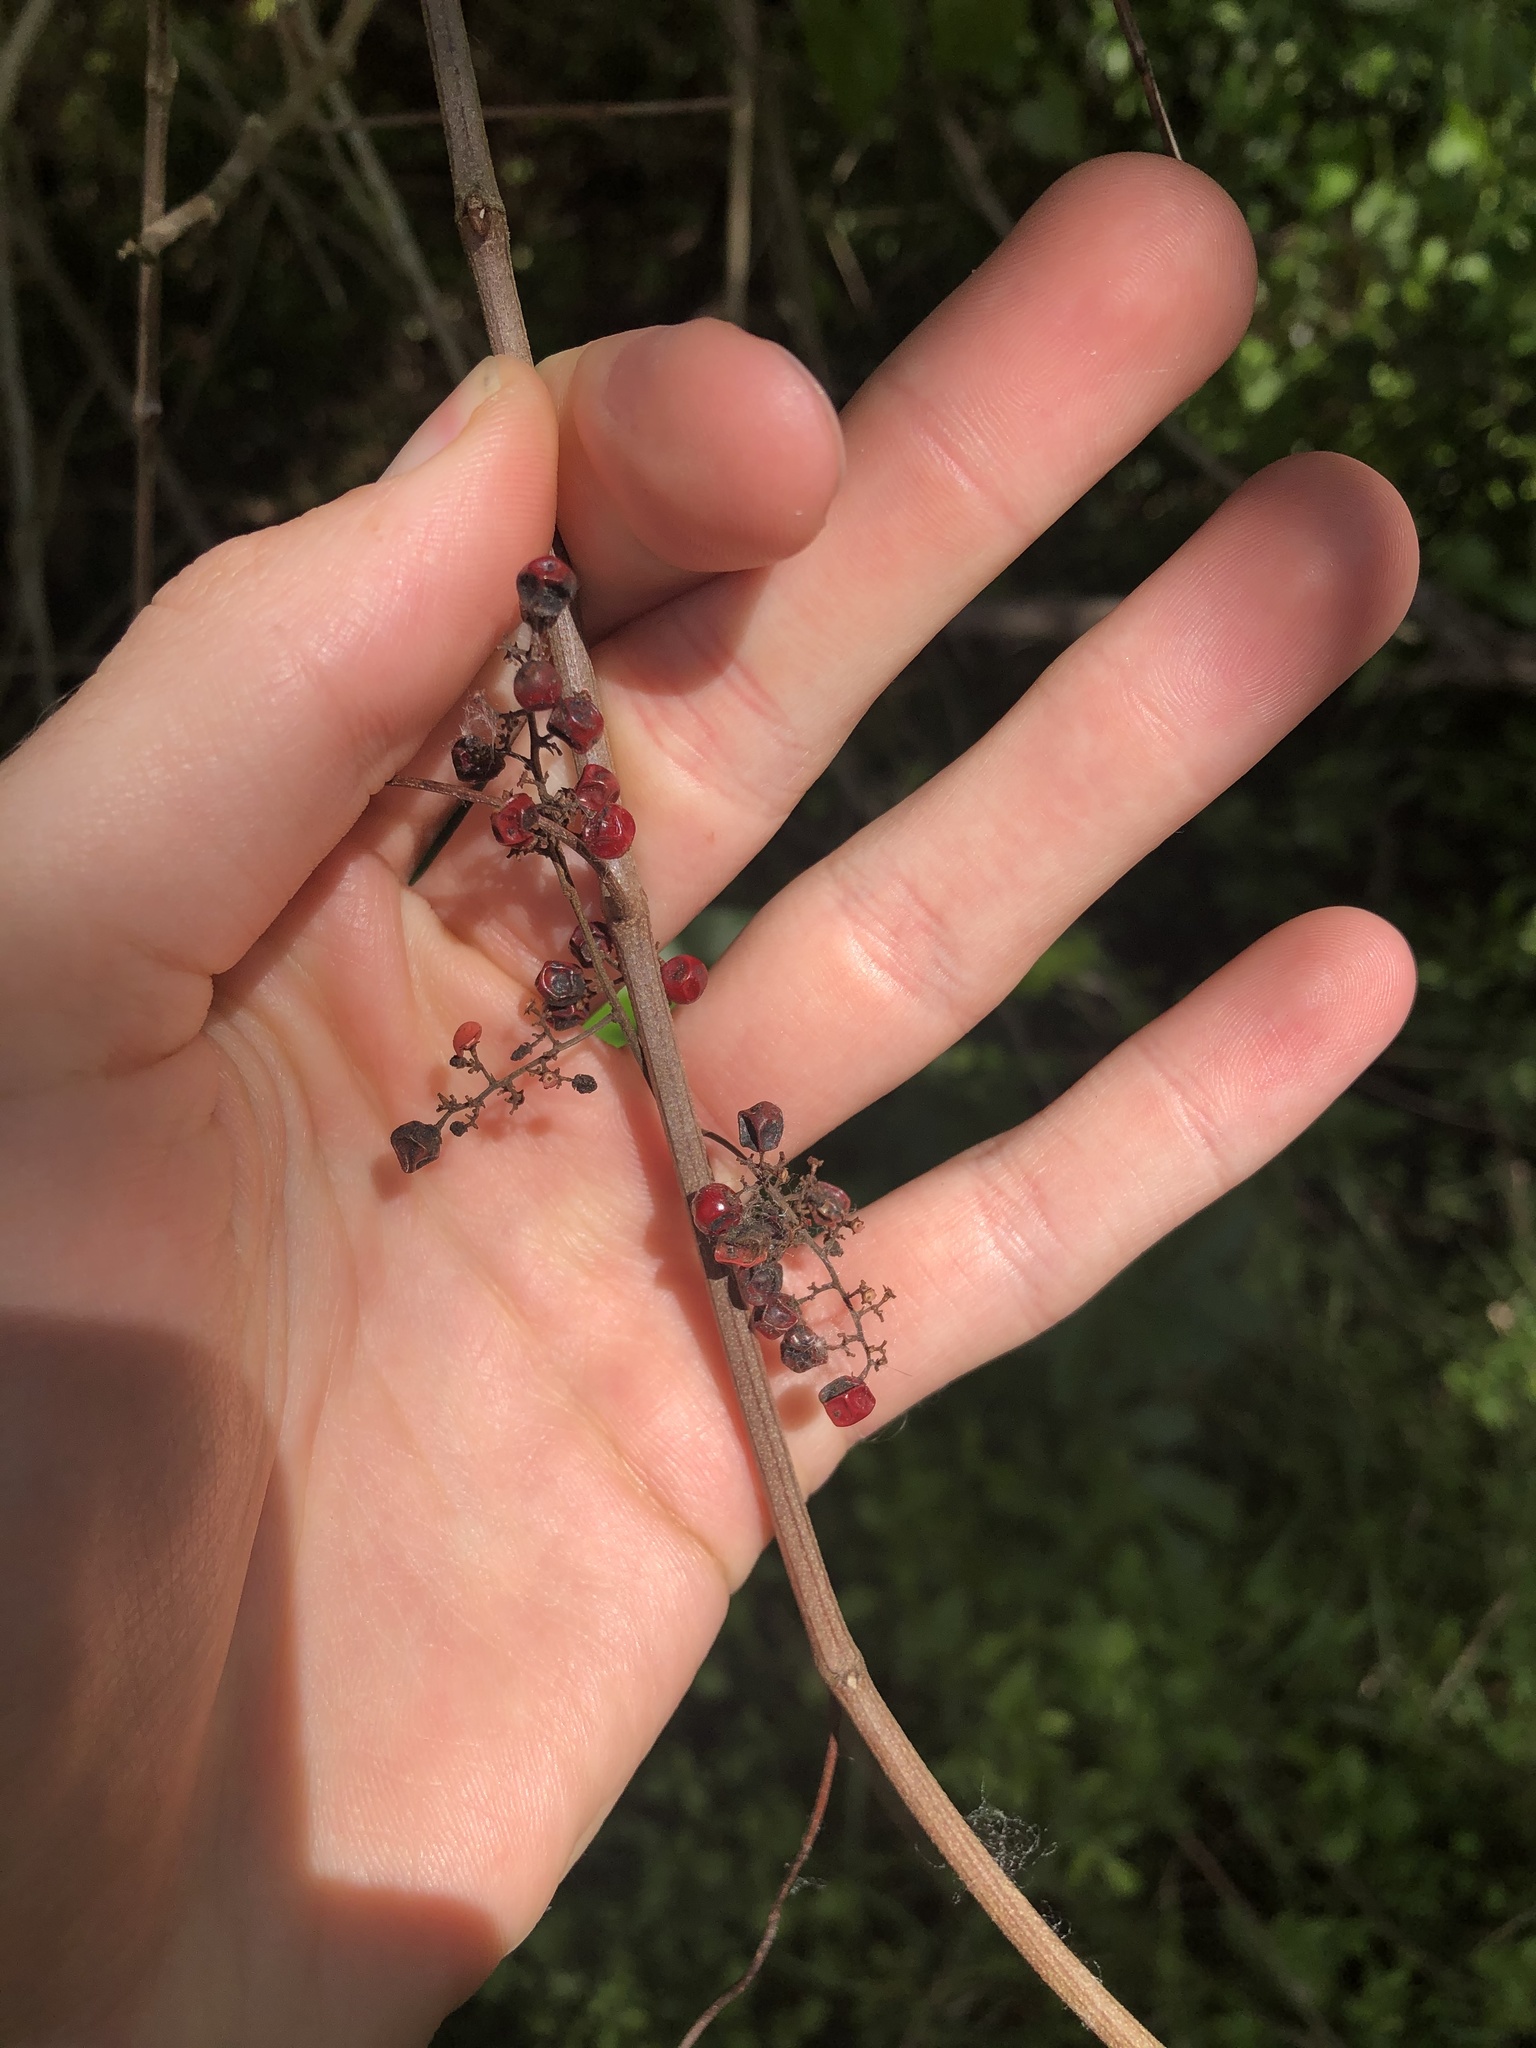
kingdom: Plantae
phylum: Tracheophyta
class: Magnoliopsida
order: Vitales
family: Vitaceae
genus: Vitis
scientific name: Vitis rotundifolia
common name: Muscadine grape
